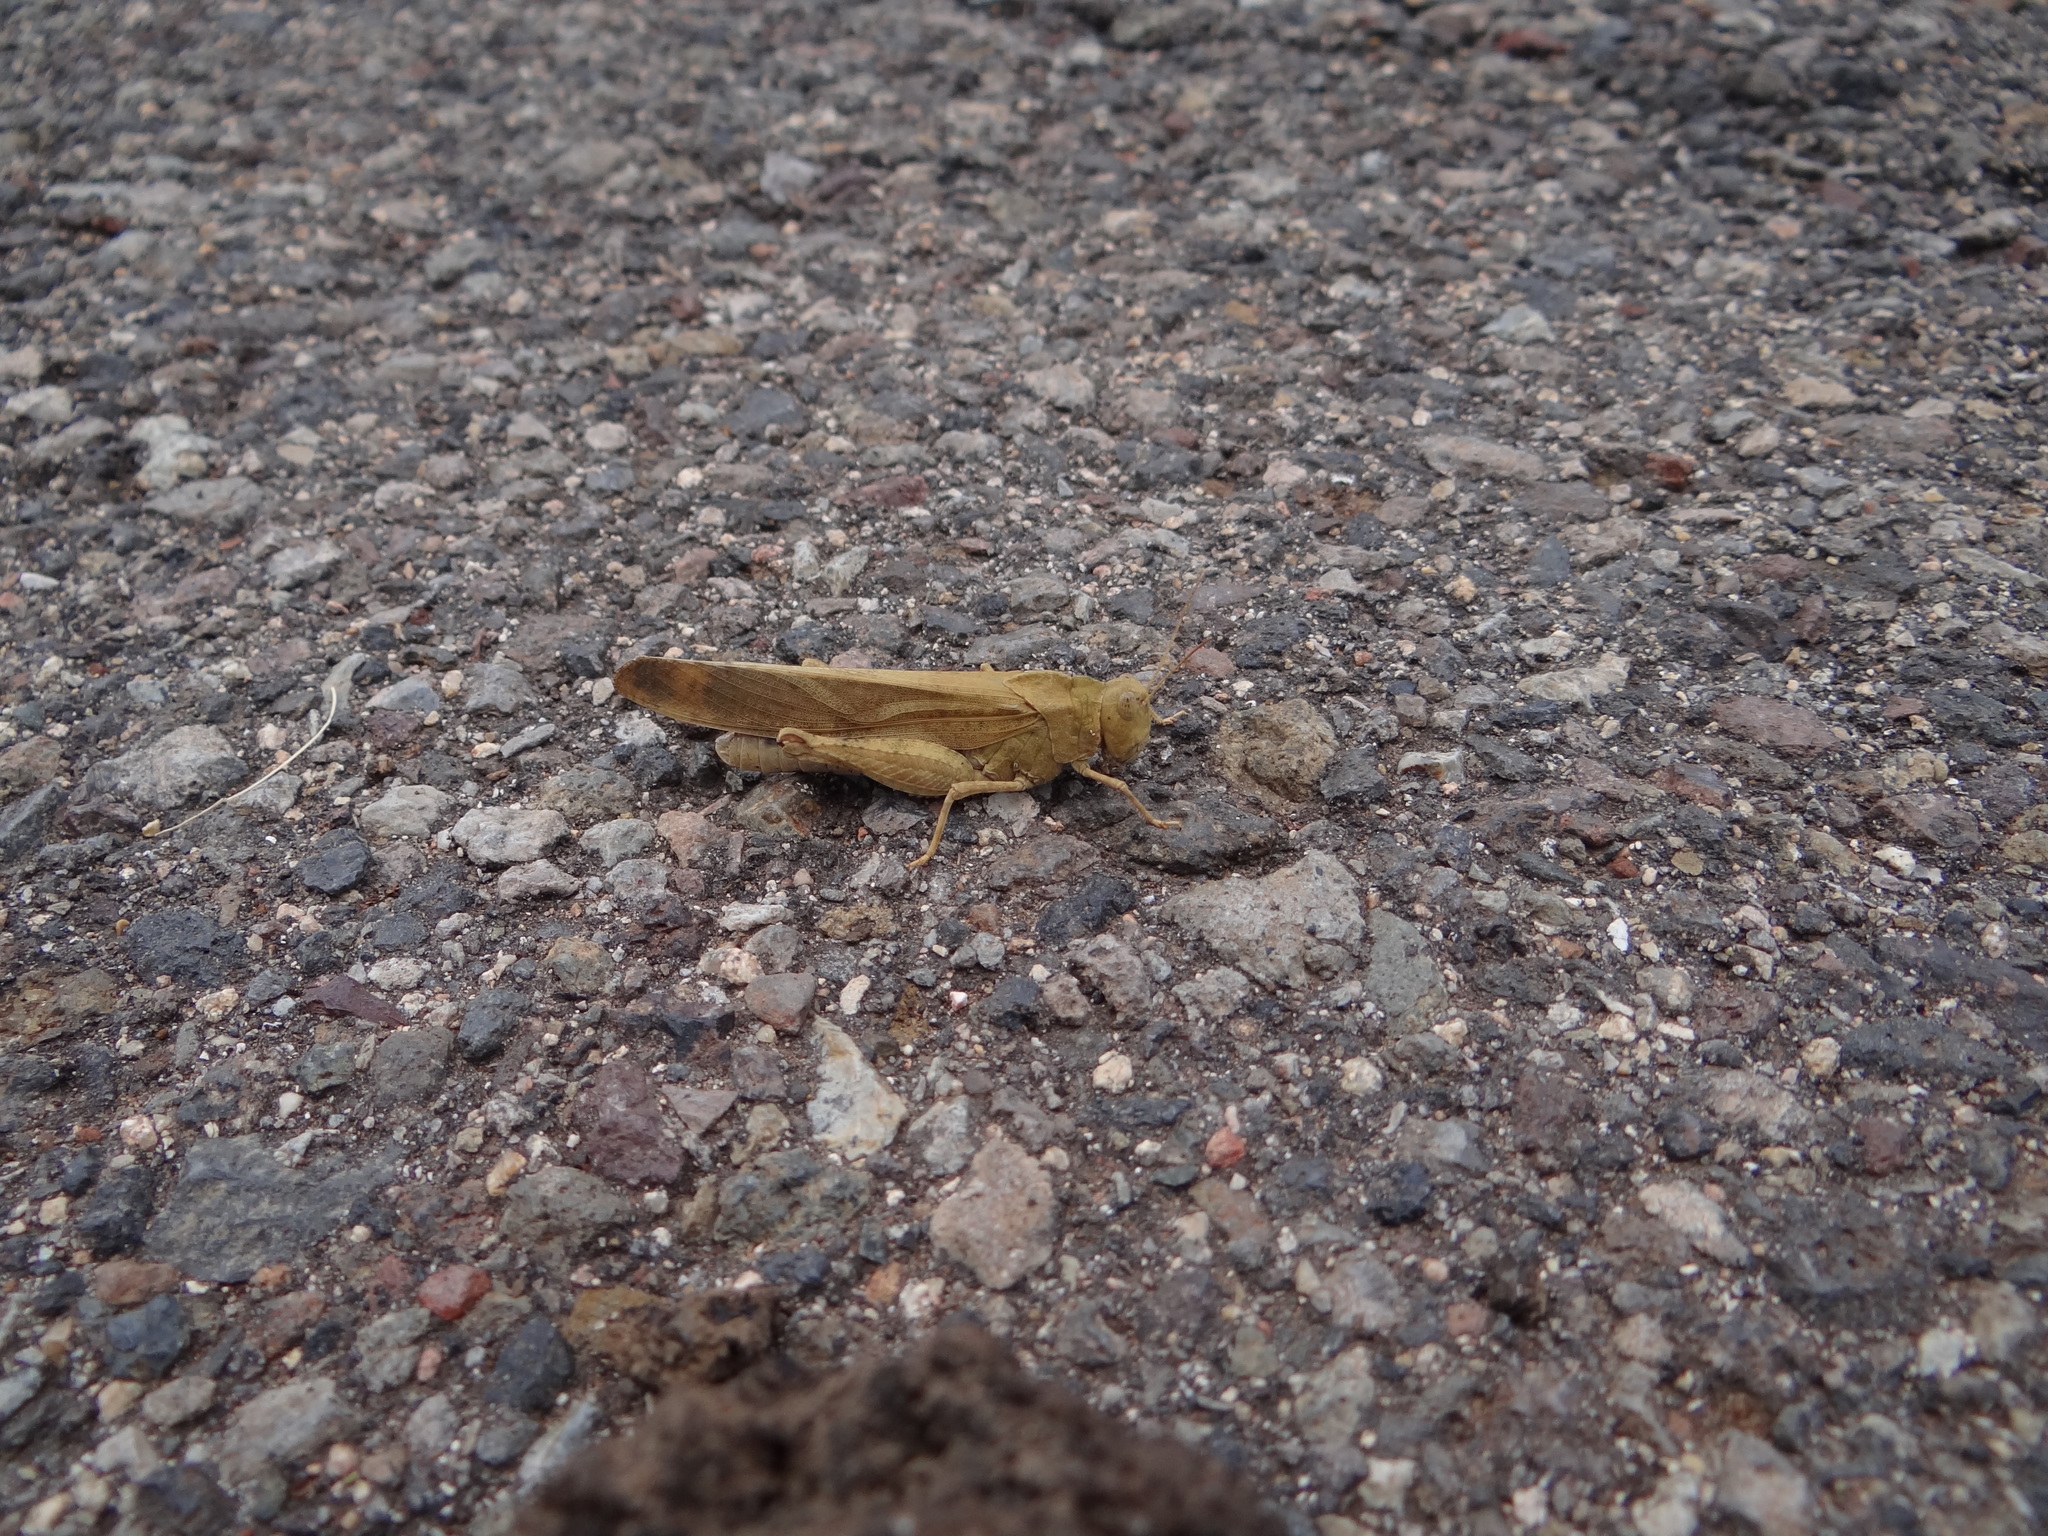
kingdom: Animalia
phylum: Arthropoda
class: Insecta
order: Orthoptera
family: Acrididae
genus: Dissosteira
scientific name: Dissosteira carolina
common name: Carolina grasshopper
